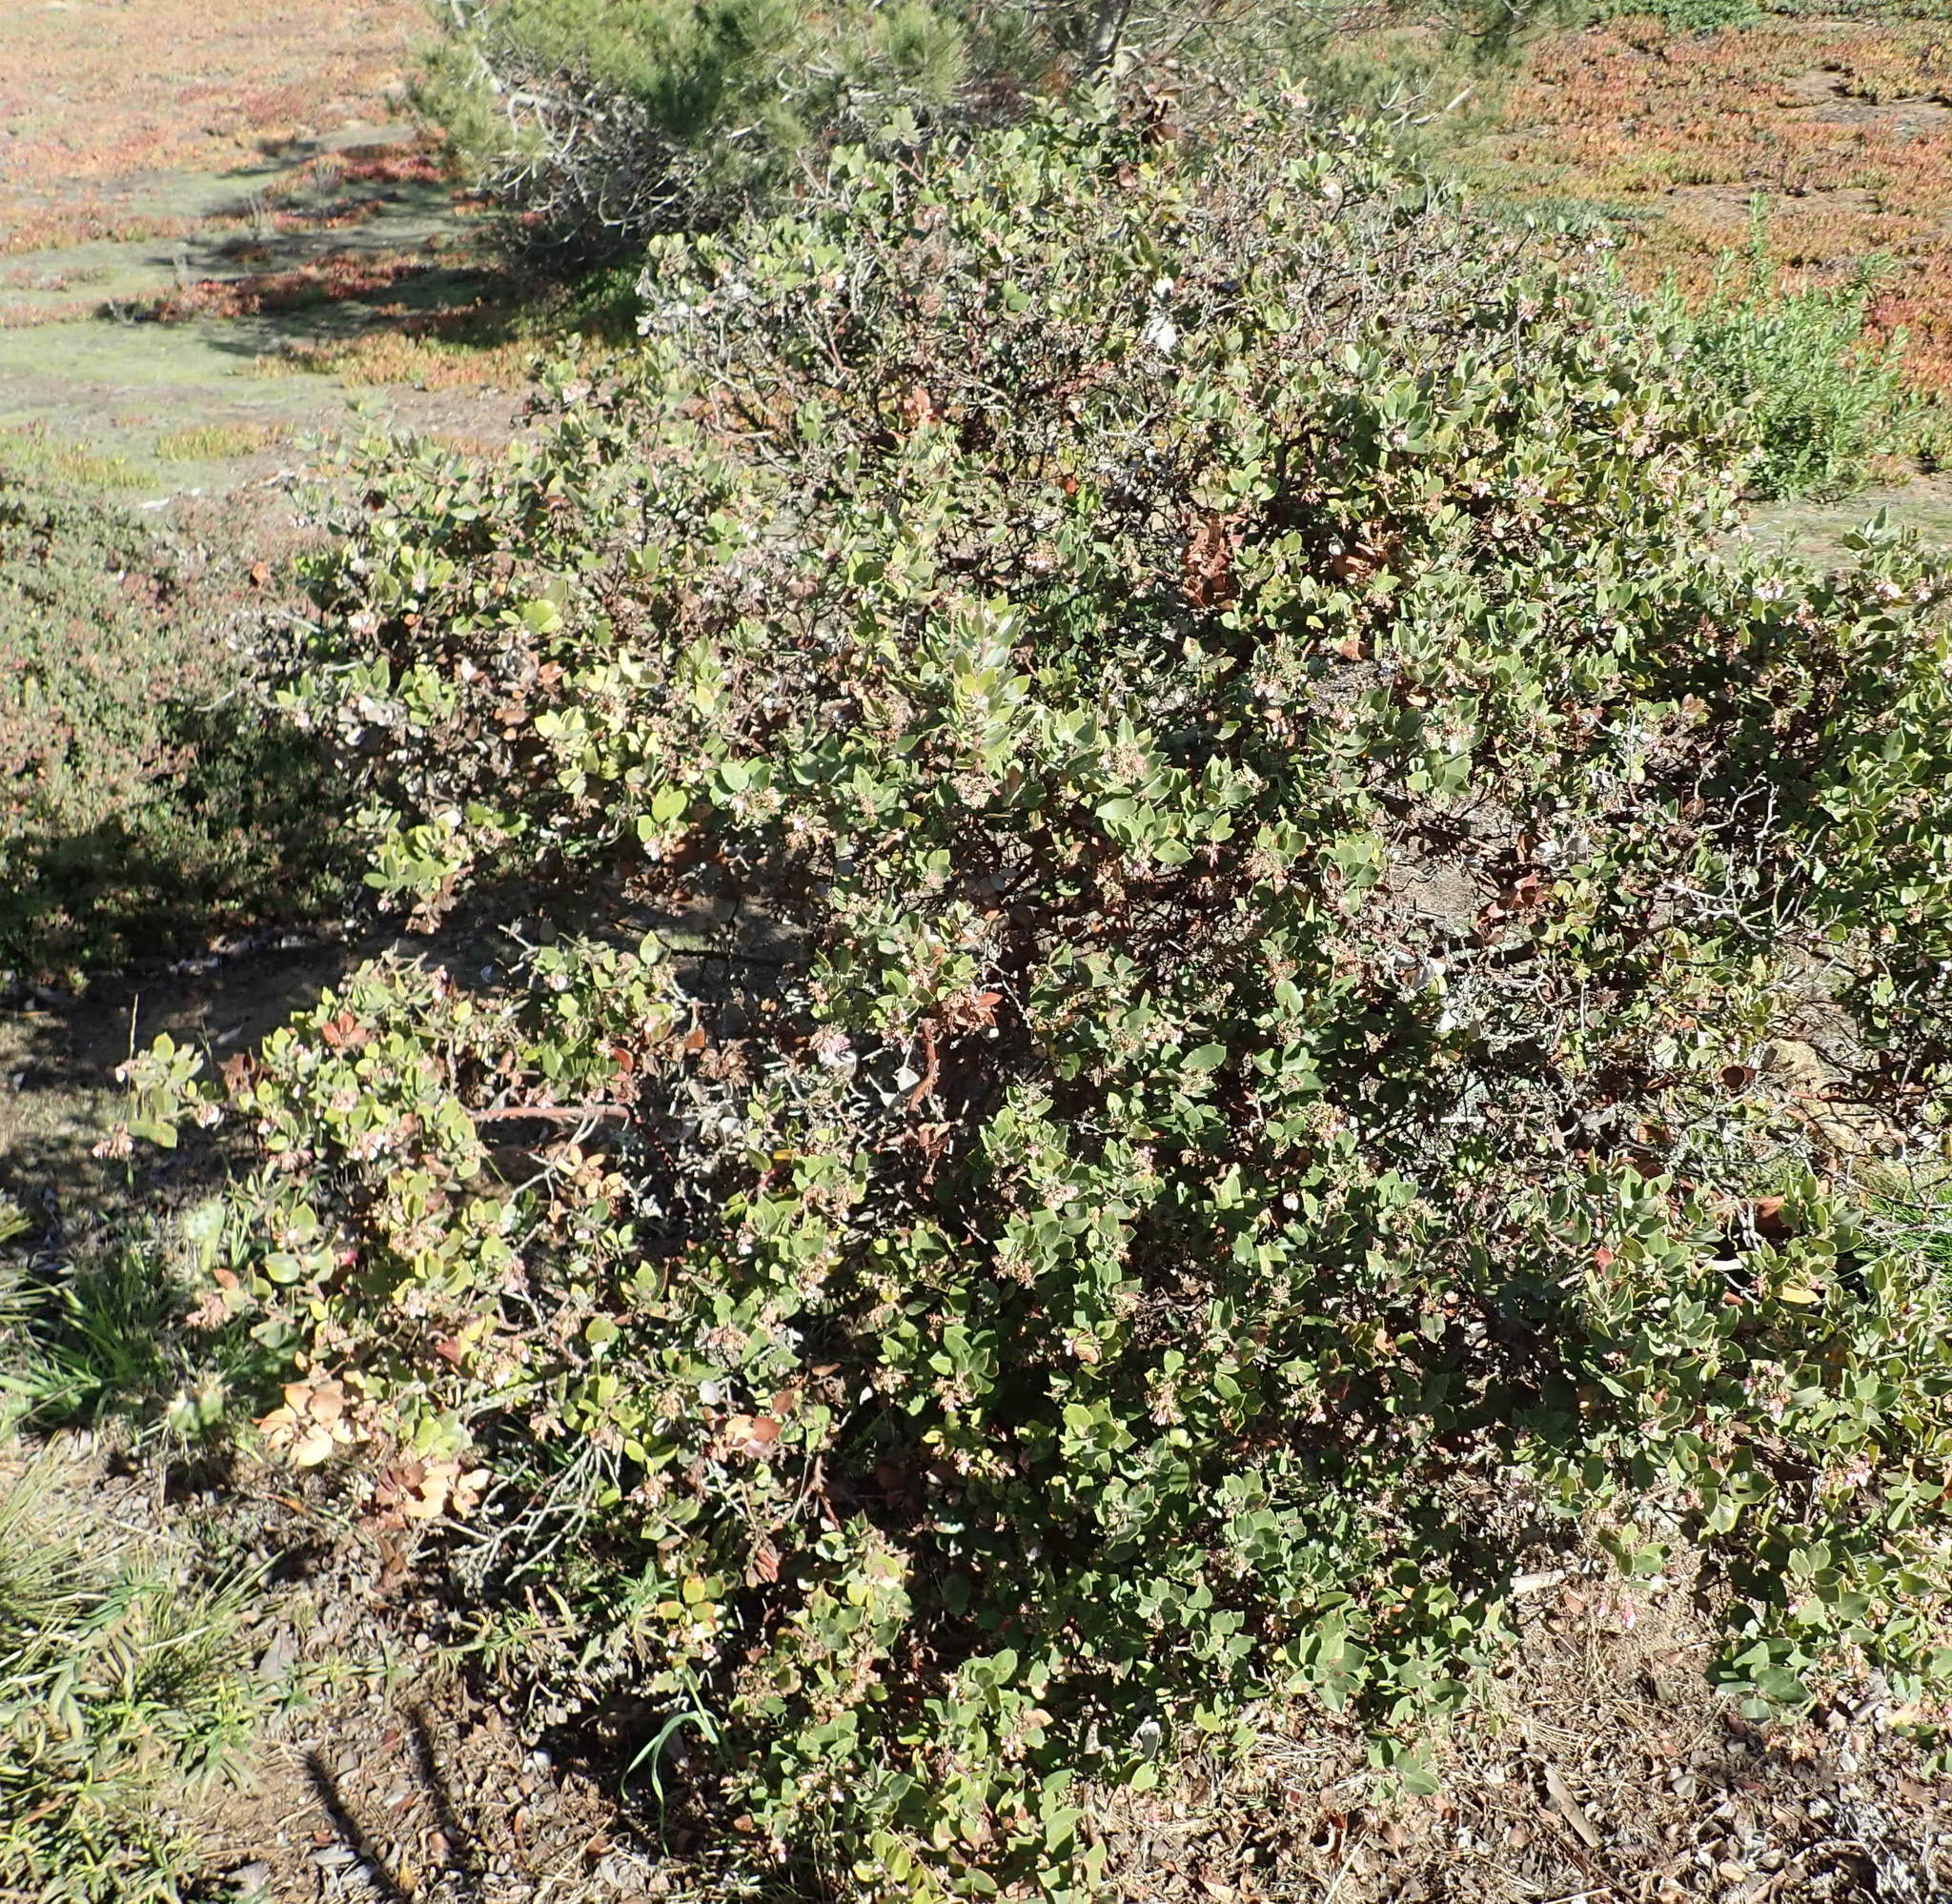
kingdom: Plantae
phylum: Tracheophyta
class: Magnoliopsida
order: Ericales
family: Ericaceae
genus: Arctostaphylos
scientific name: Arctostaphylos tomentosa
